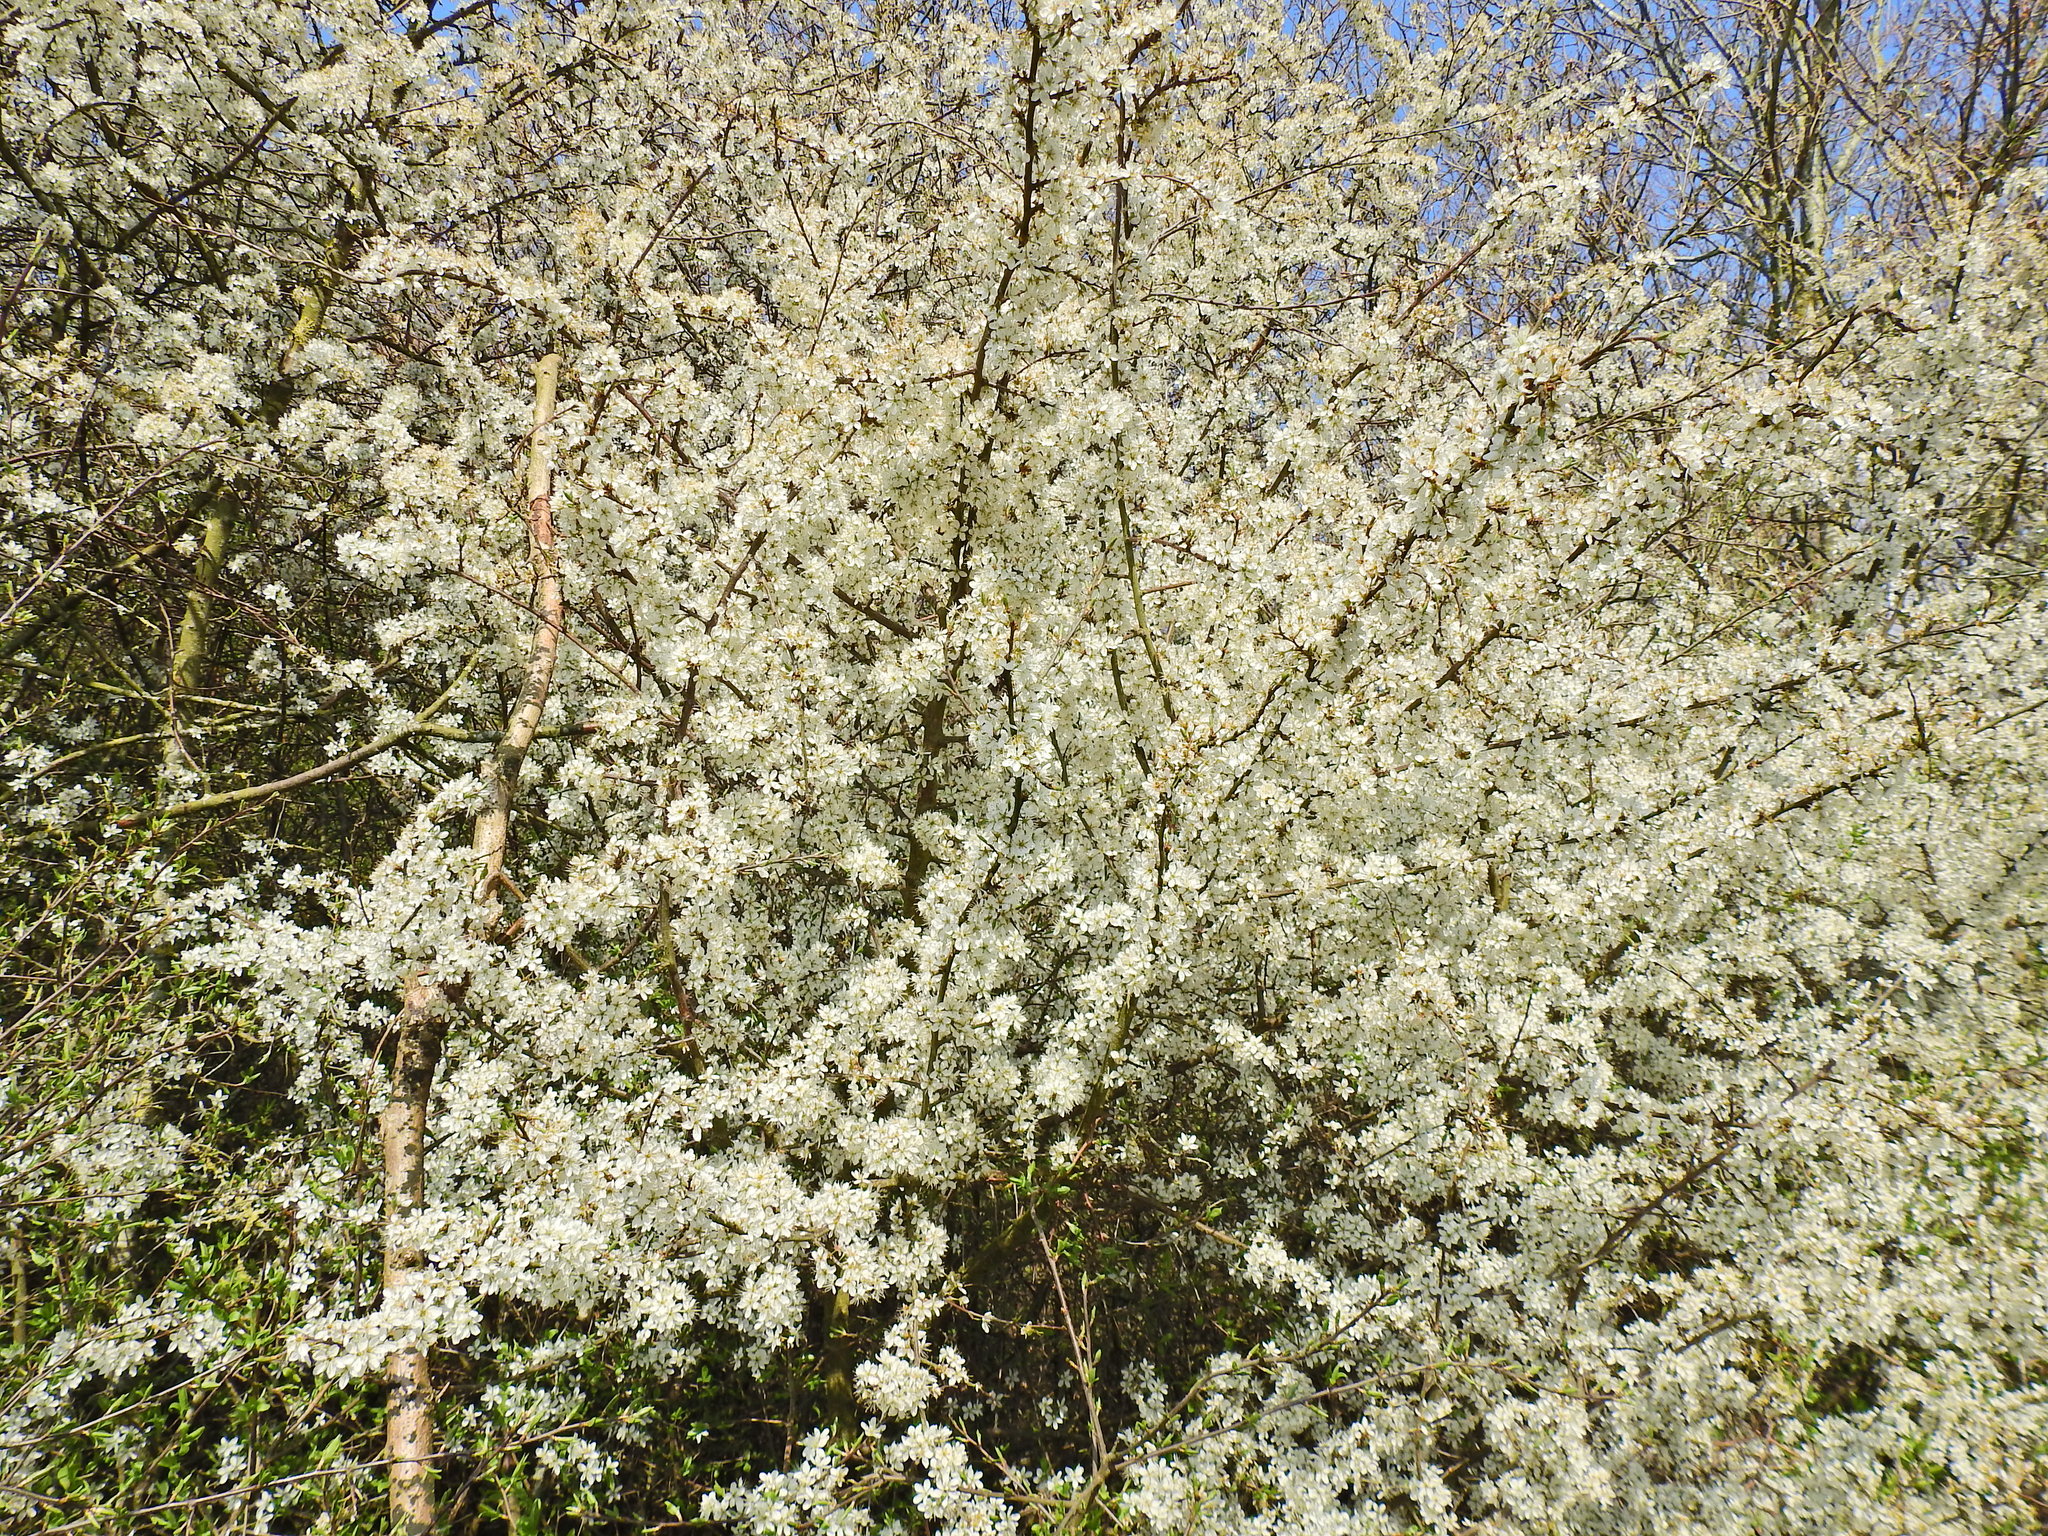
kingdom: Plantae
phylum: Tracheophyta
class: Magnoliopsida
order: Rosales
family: Rosaceae
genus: Prunus
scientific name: Prunus spinosa
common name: Blackthorn
